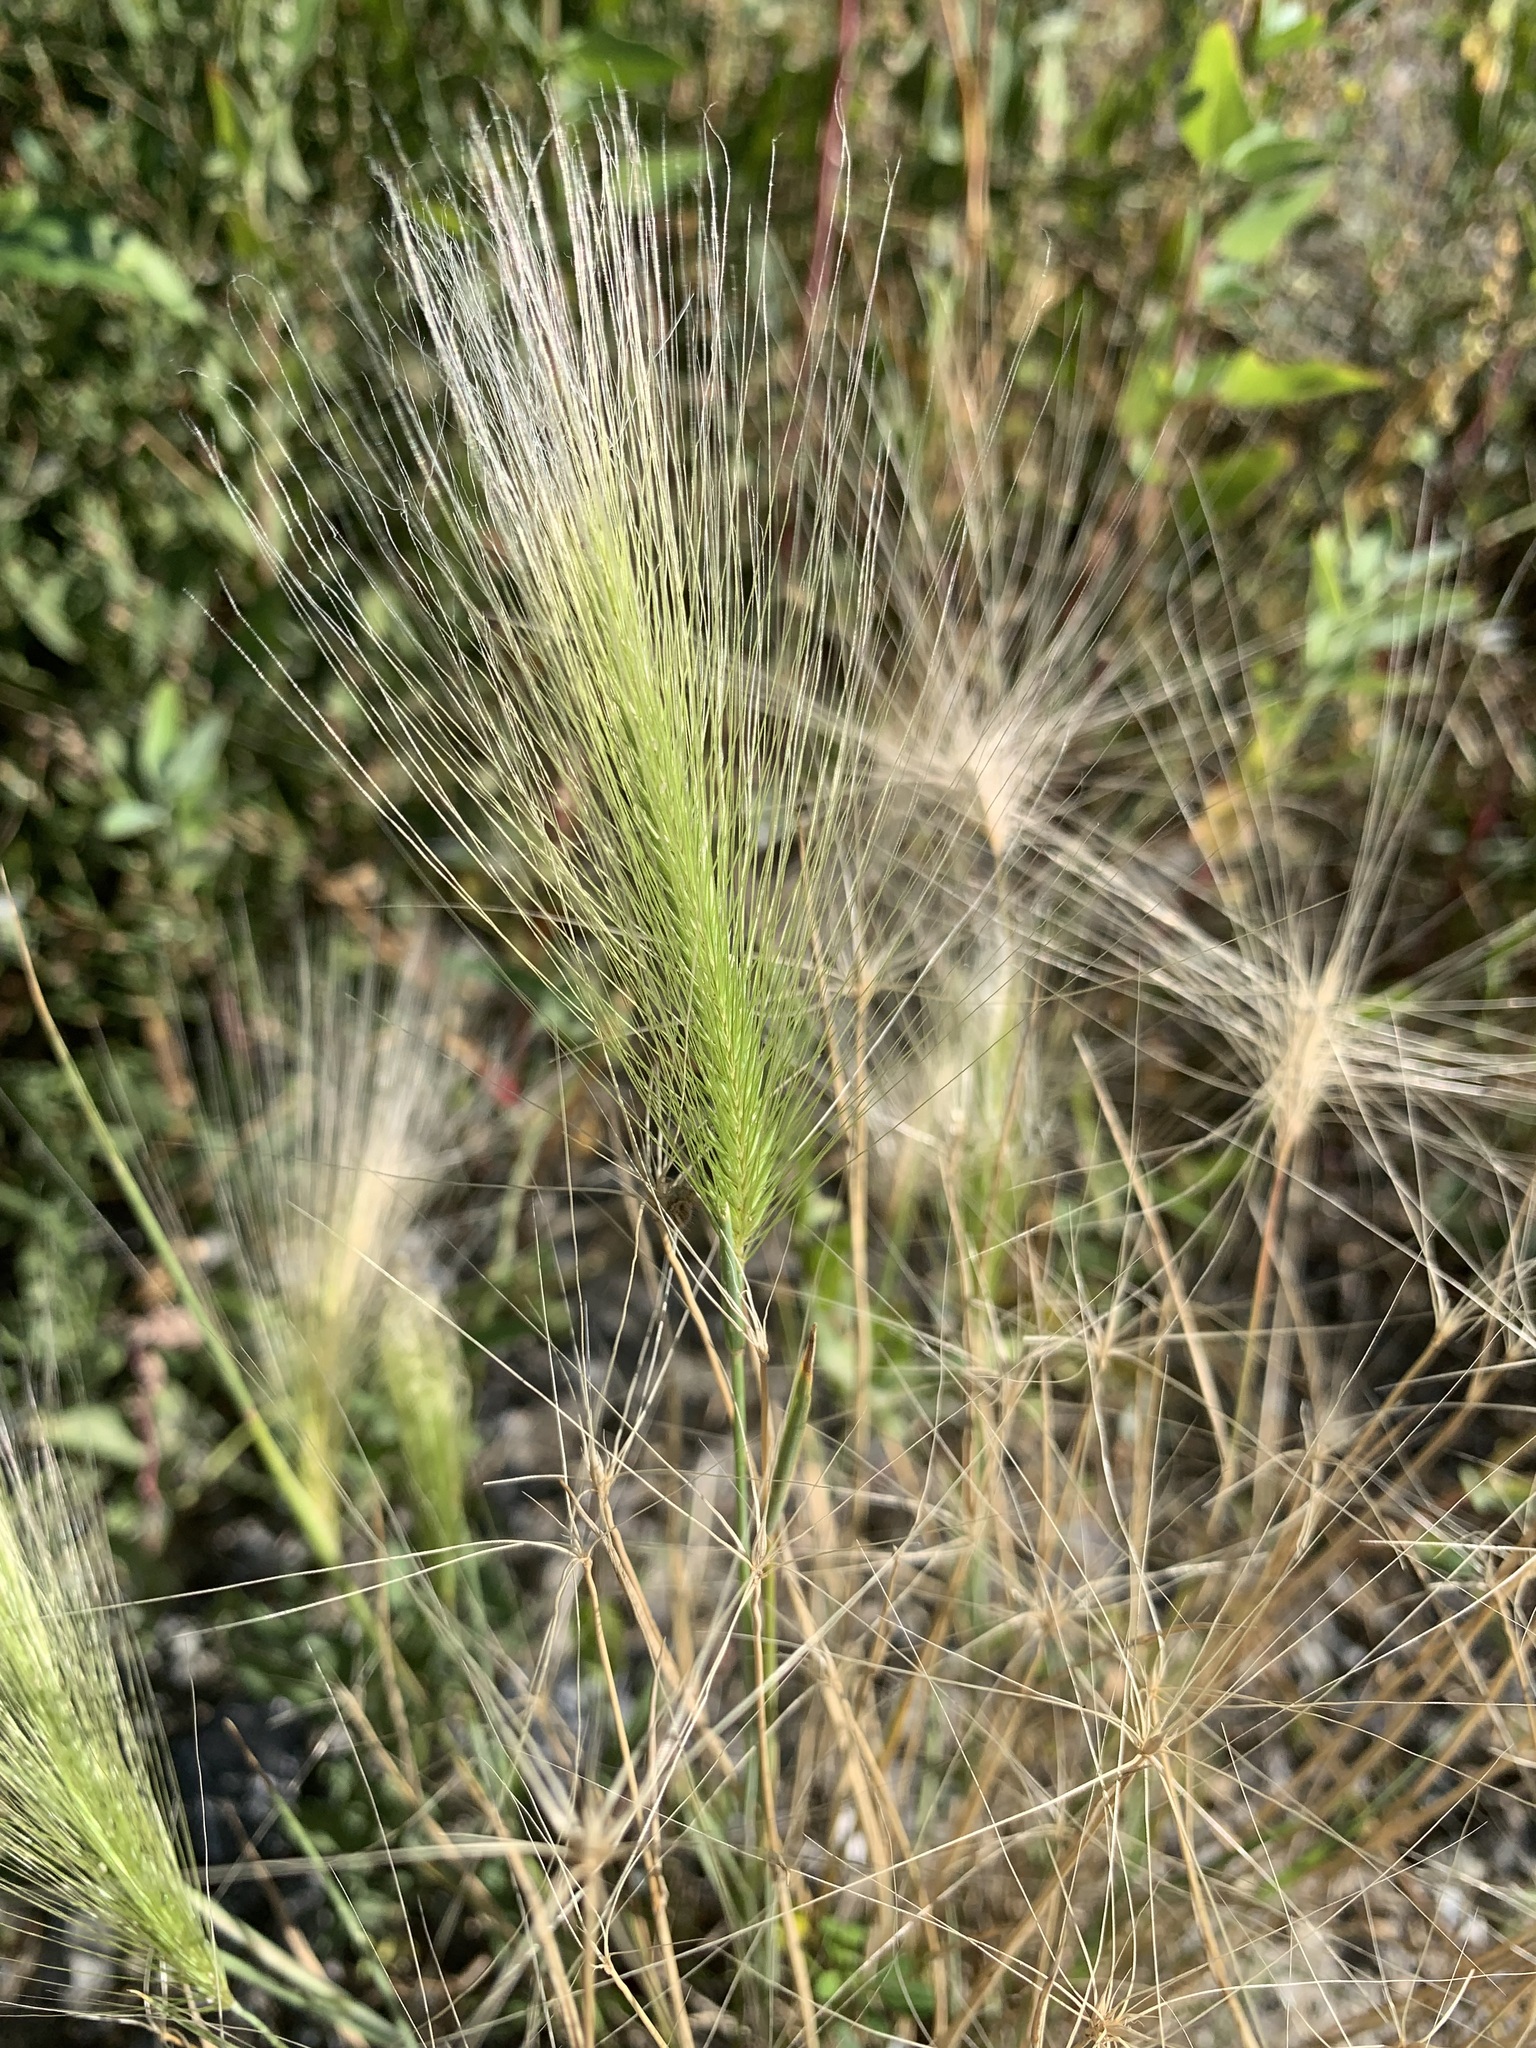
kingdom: Plantae
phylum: Tracheophyta
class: Liliopsida
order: Poales
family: Poaceae
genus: Hordeum
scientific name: Hordeum jubatum
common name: Foxtail barley
